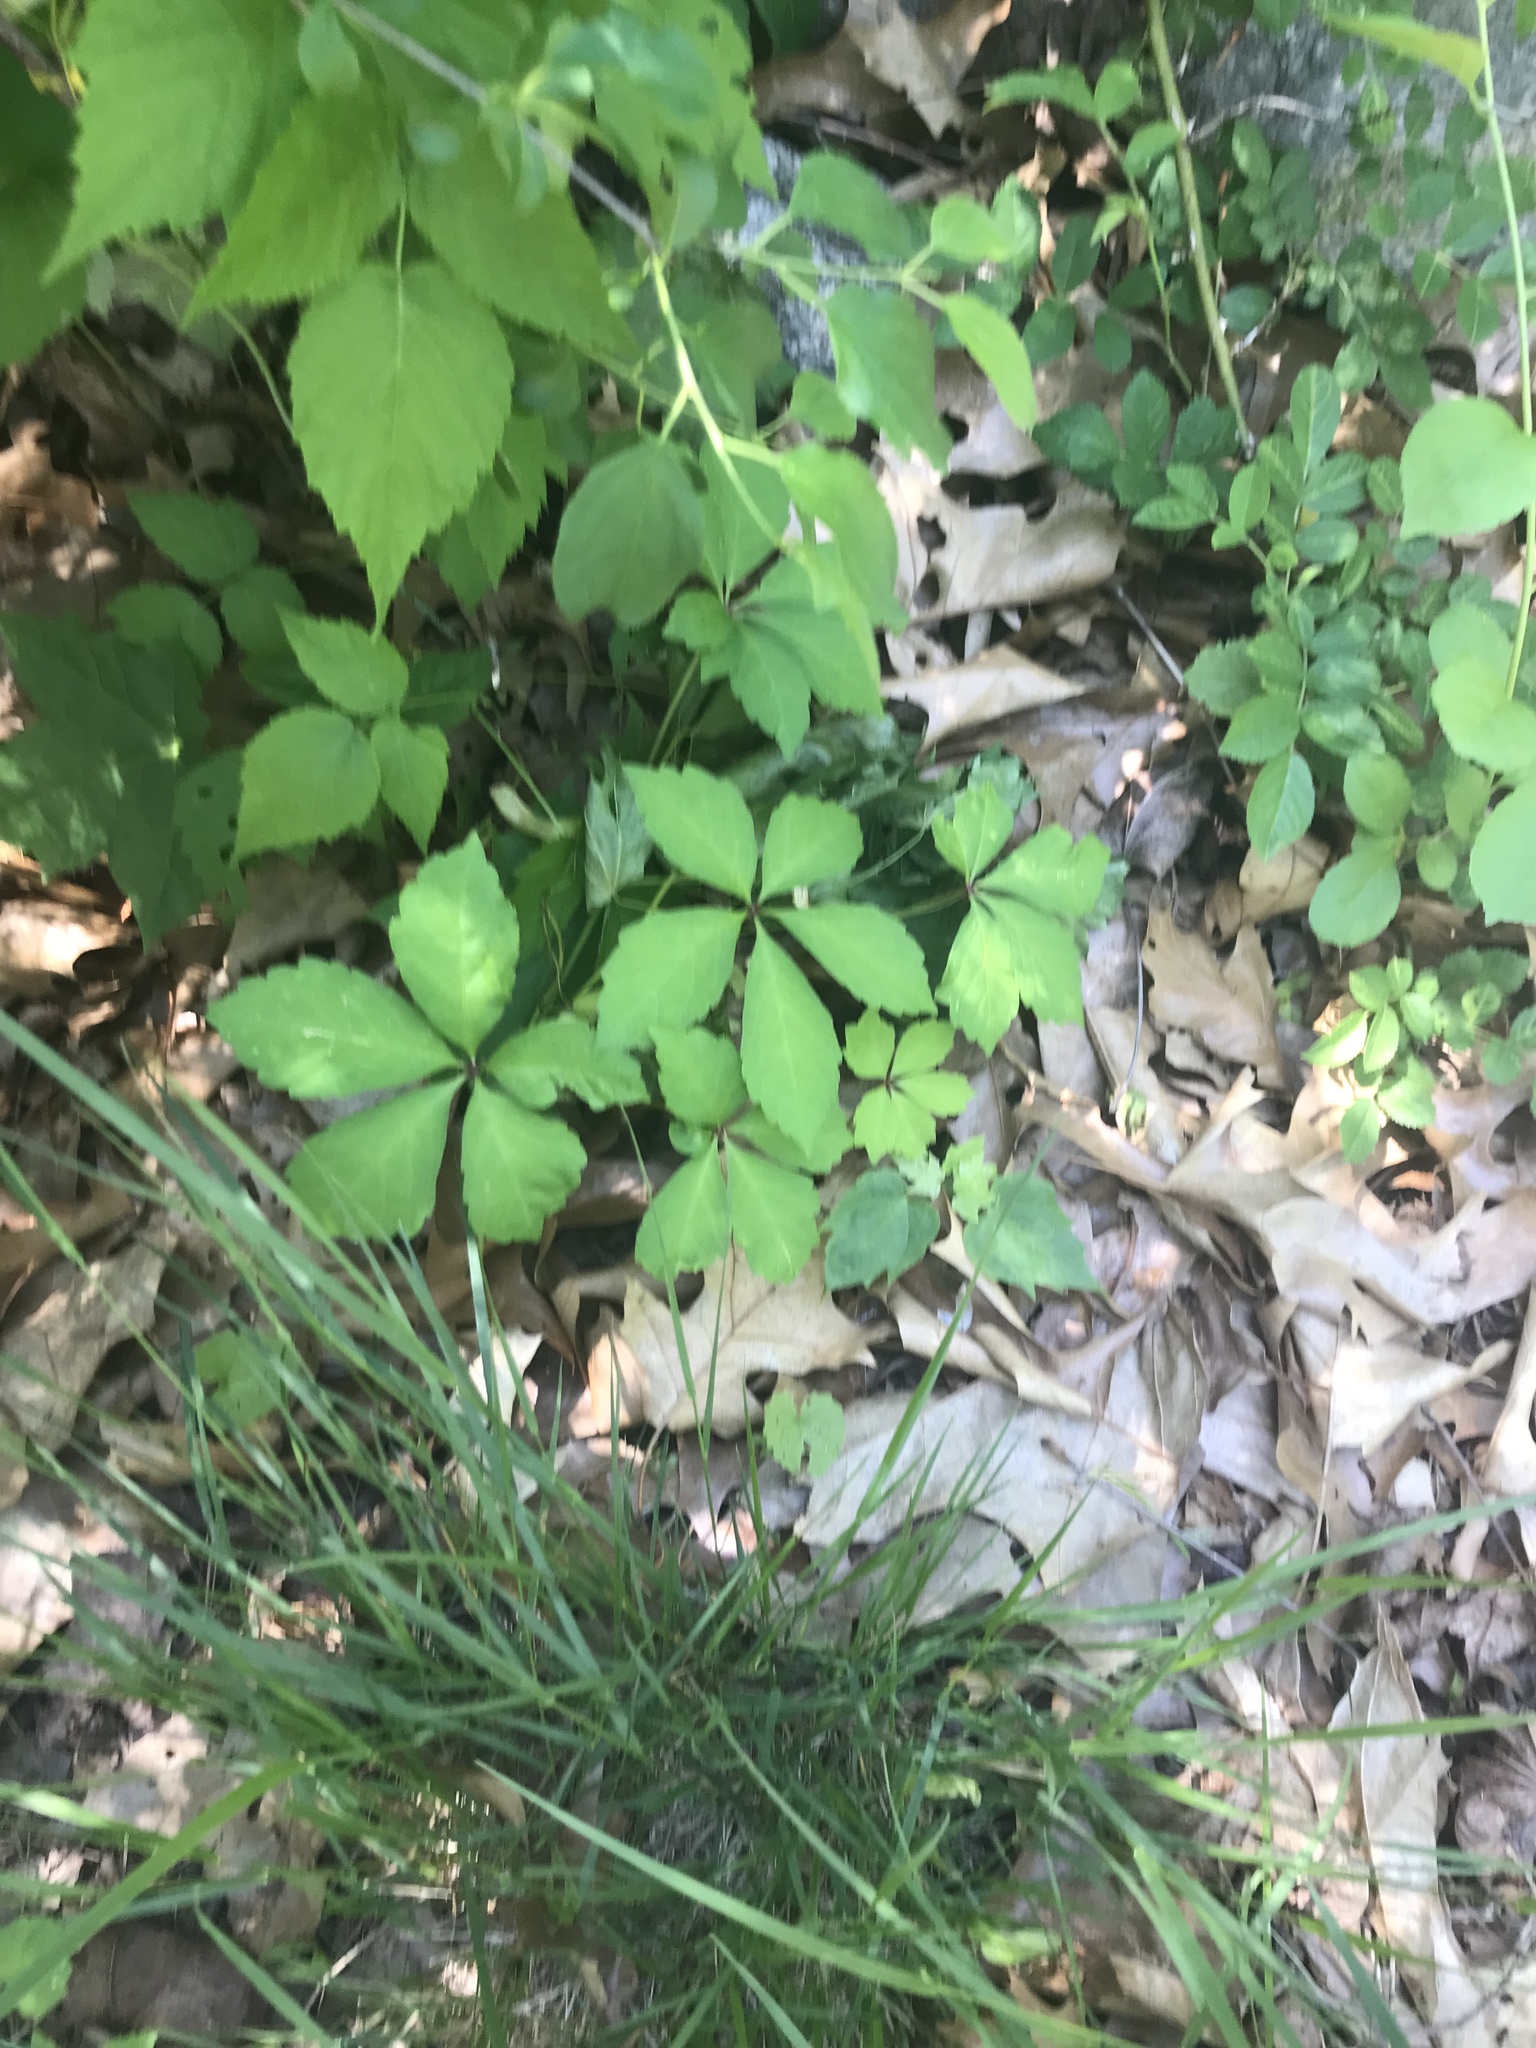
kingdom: Plantae
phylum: Tracheophyta
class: Magnoliopsida
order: Vitales
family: Vitaceae
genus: Parthenocissus
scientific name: Parthenocissus quinquefolia
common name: Virginia-creeper
